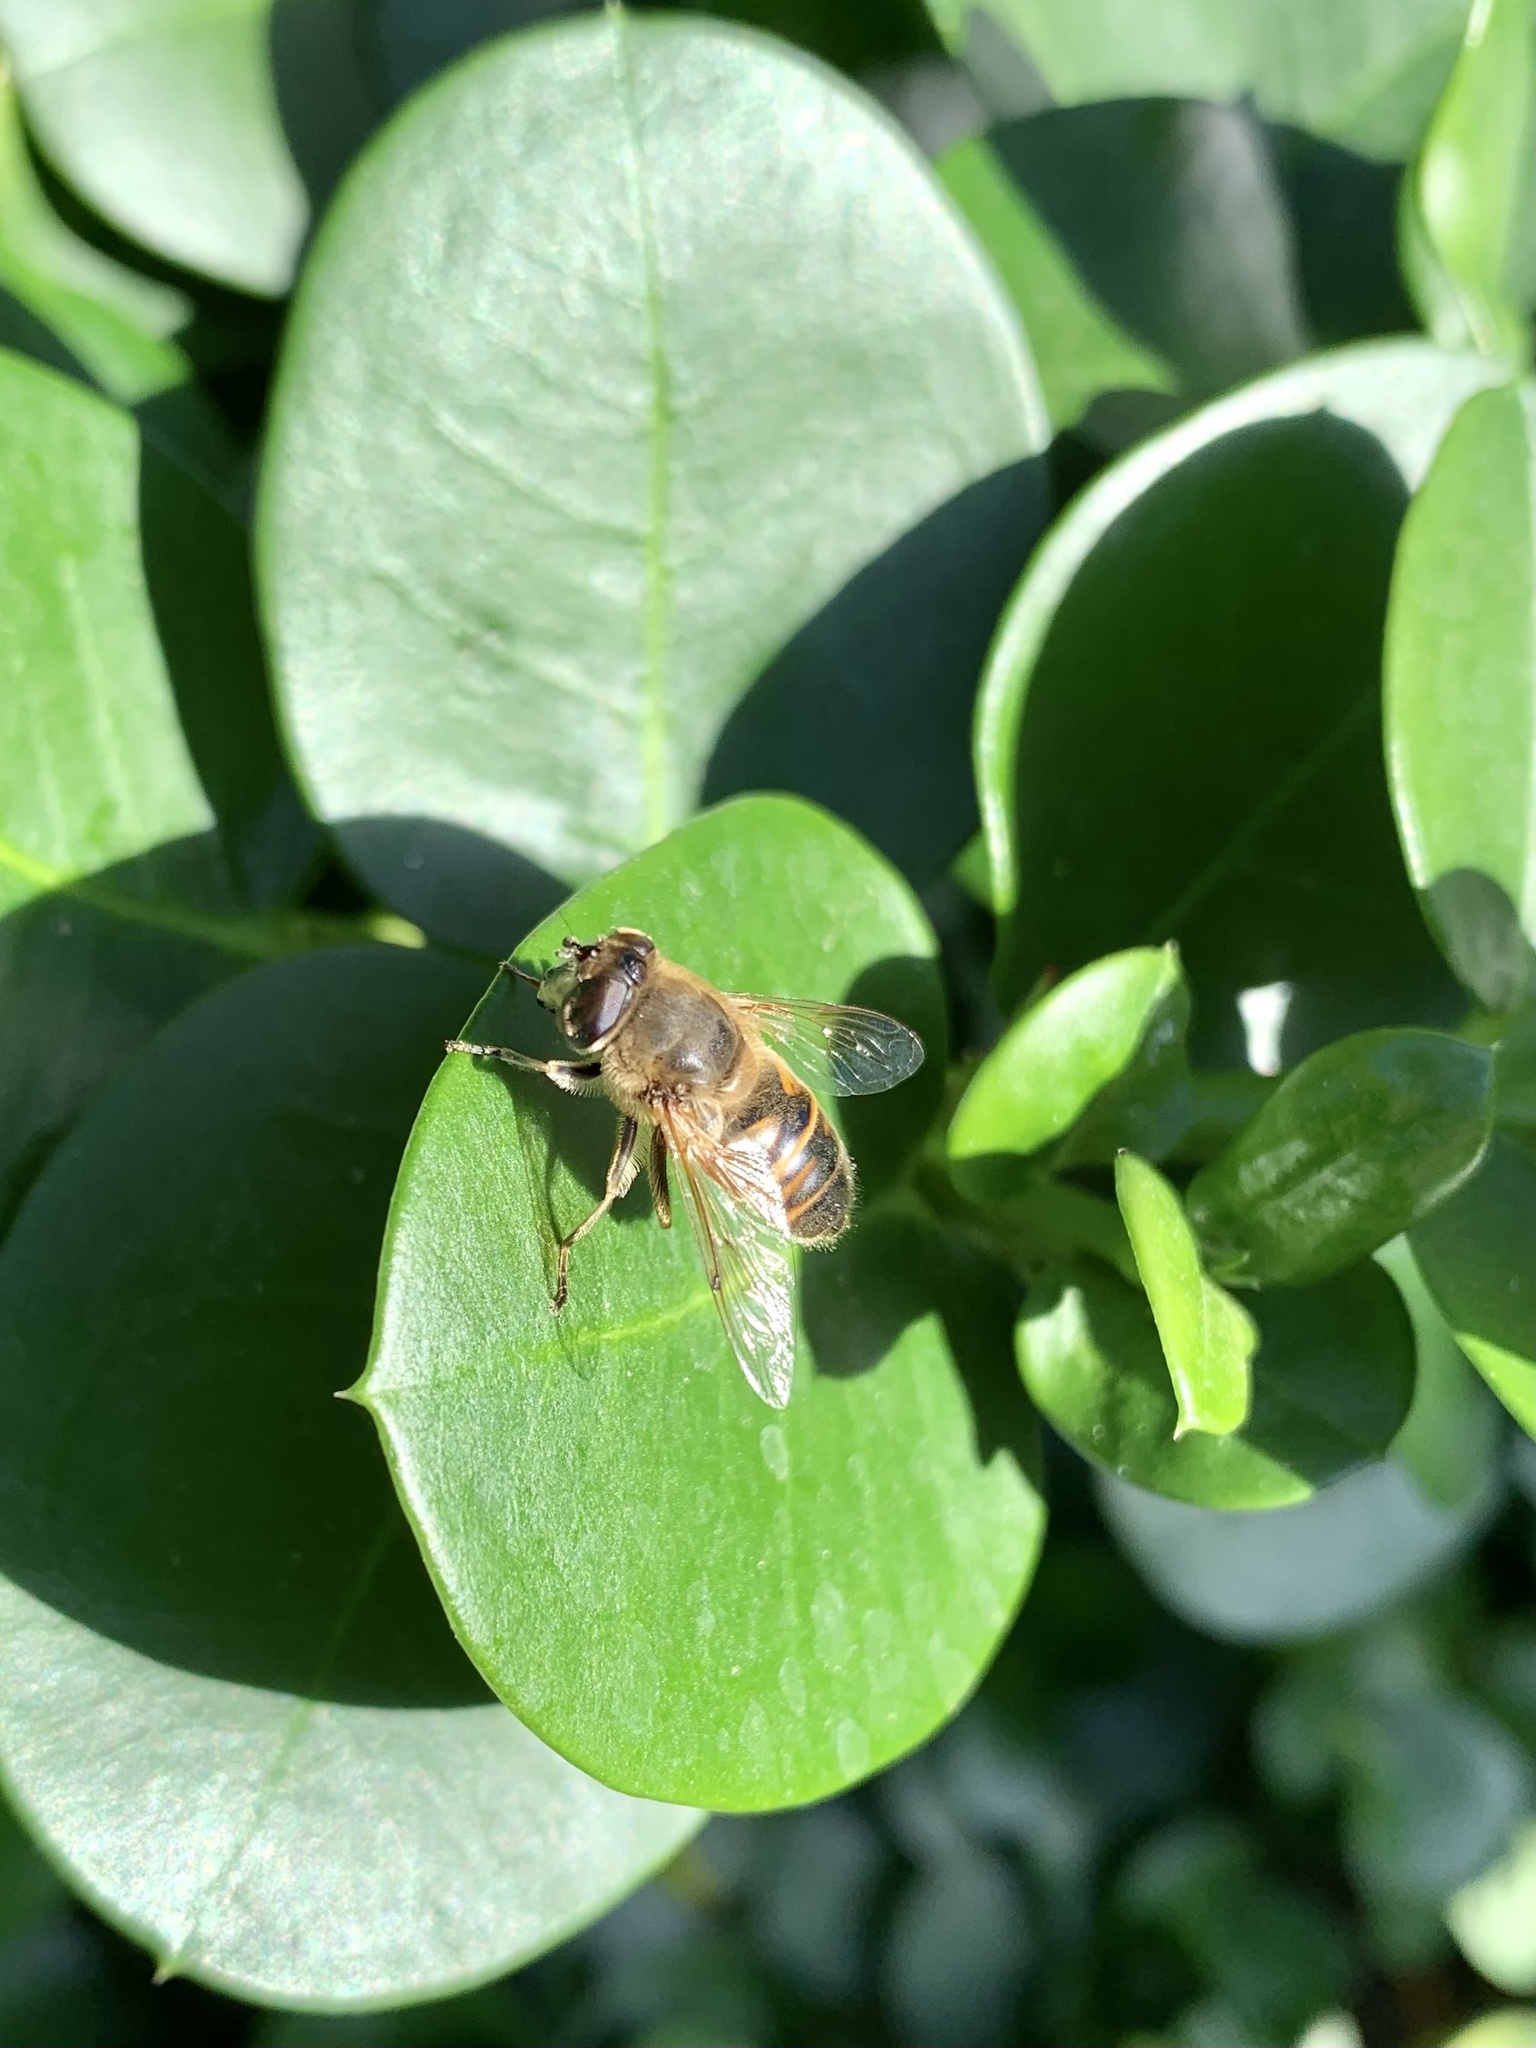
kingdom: Animalia
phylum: Arthropoda
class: Insecta
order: Diptera
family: Syrphidae
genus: Eristalis
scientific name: Eristalis tenax
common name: Drone fly
